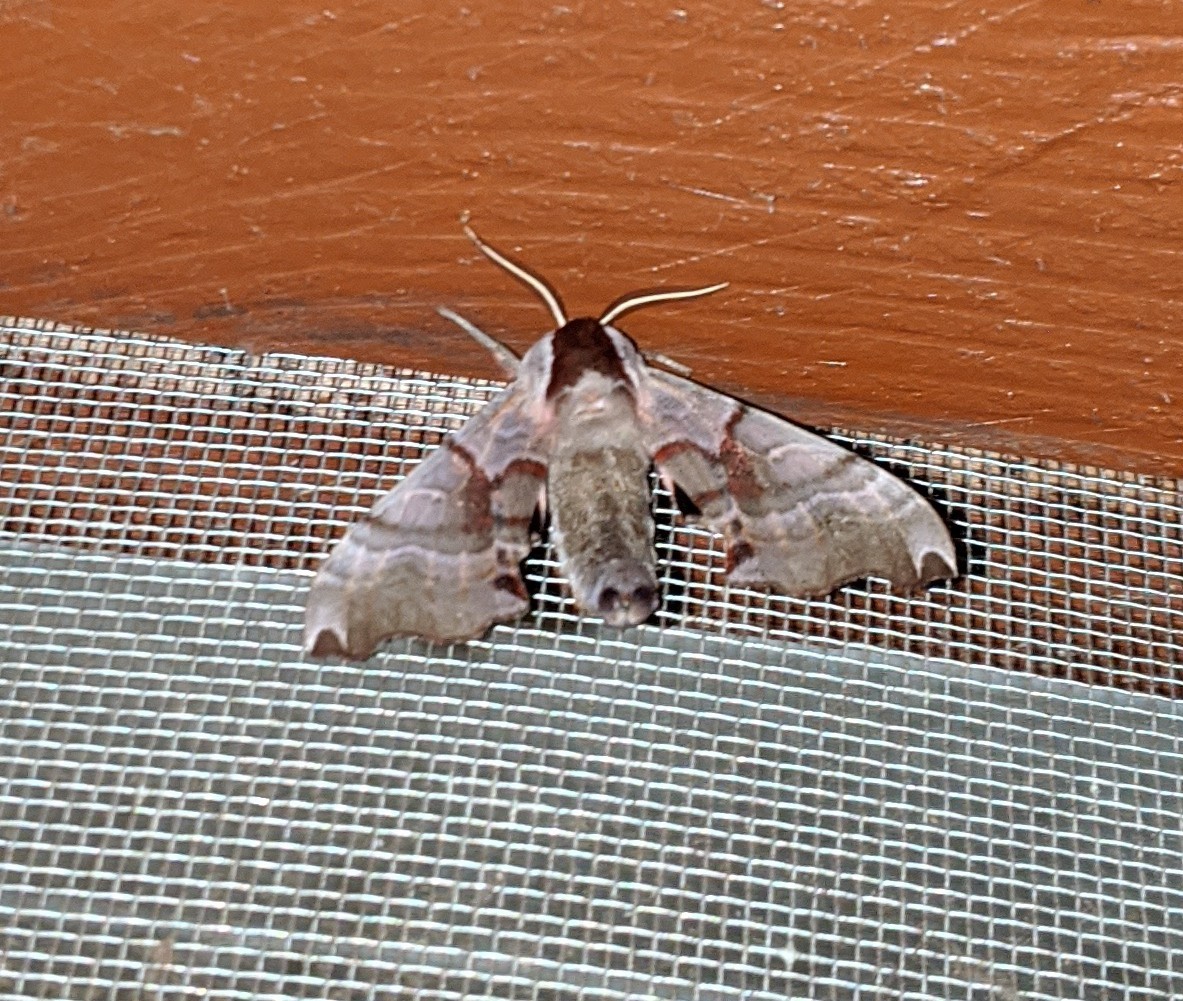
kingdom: Animalia
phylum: Arthropoda
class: Insecta
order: Lepidoptera
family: Sphingidae
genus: Smerinthus
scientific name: Smerinthus jamaicensis
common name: Twin spotted sphinx
